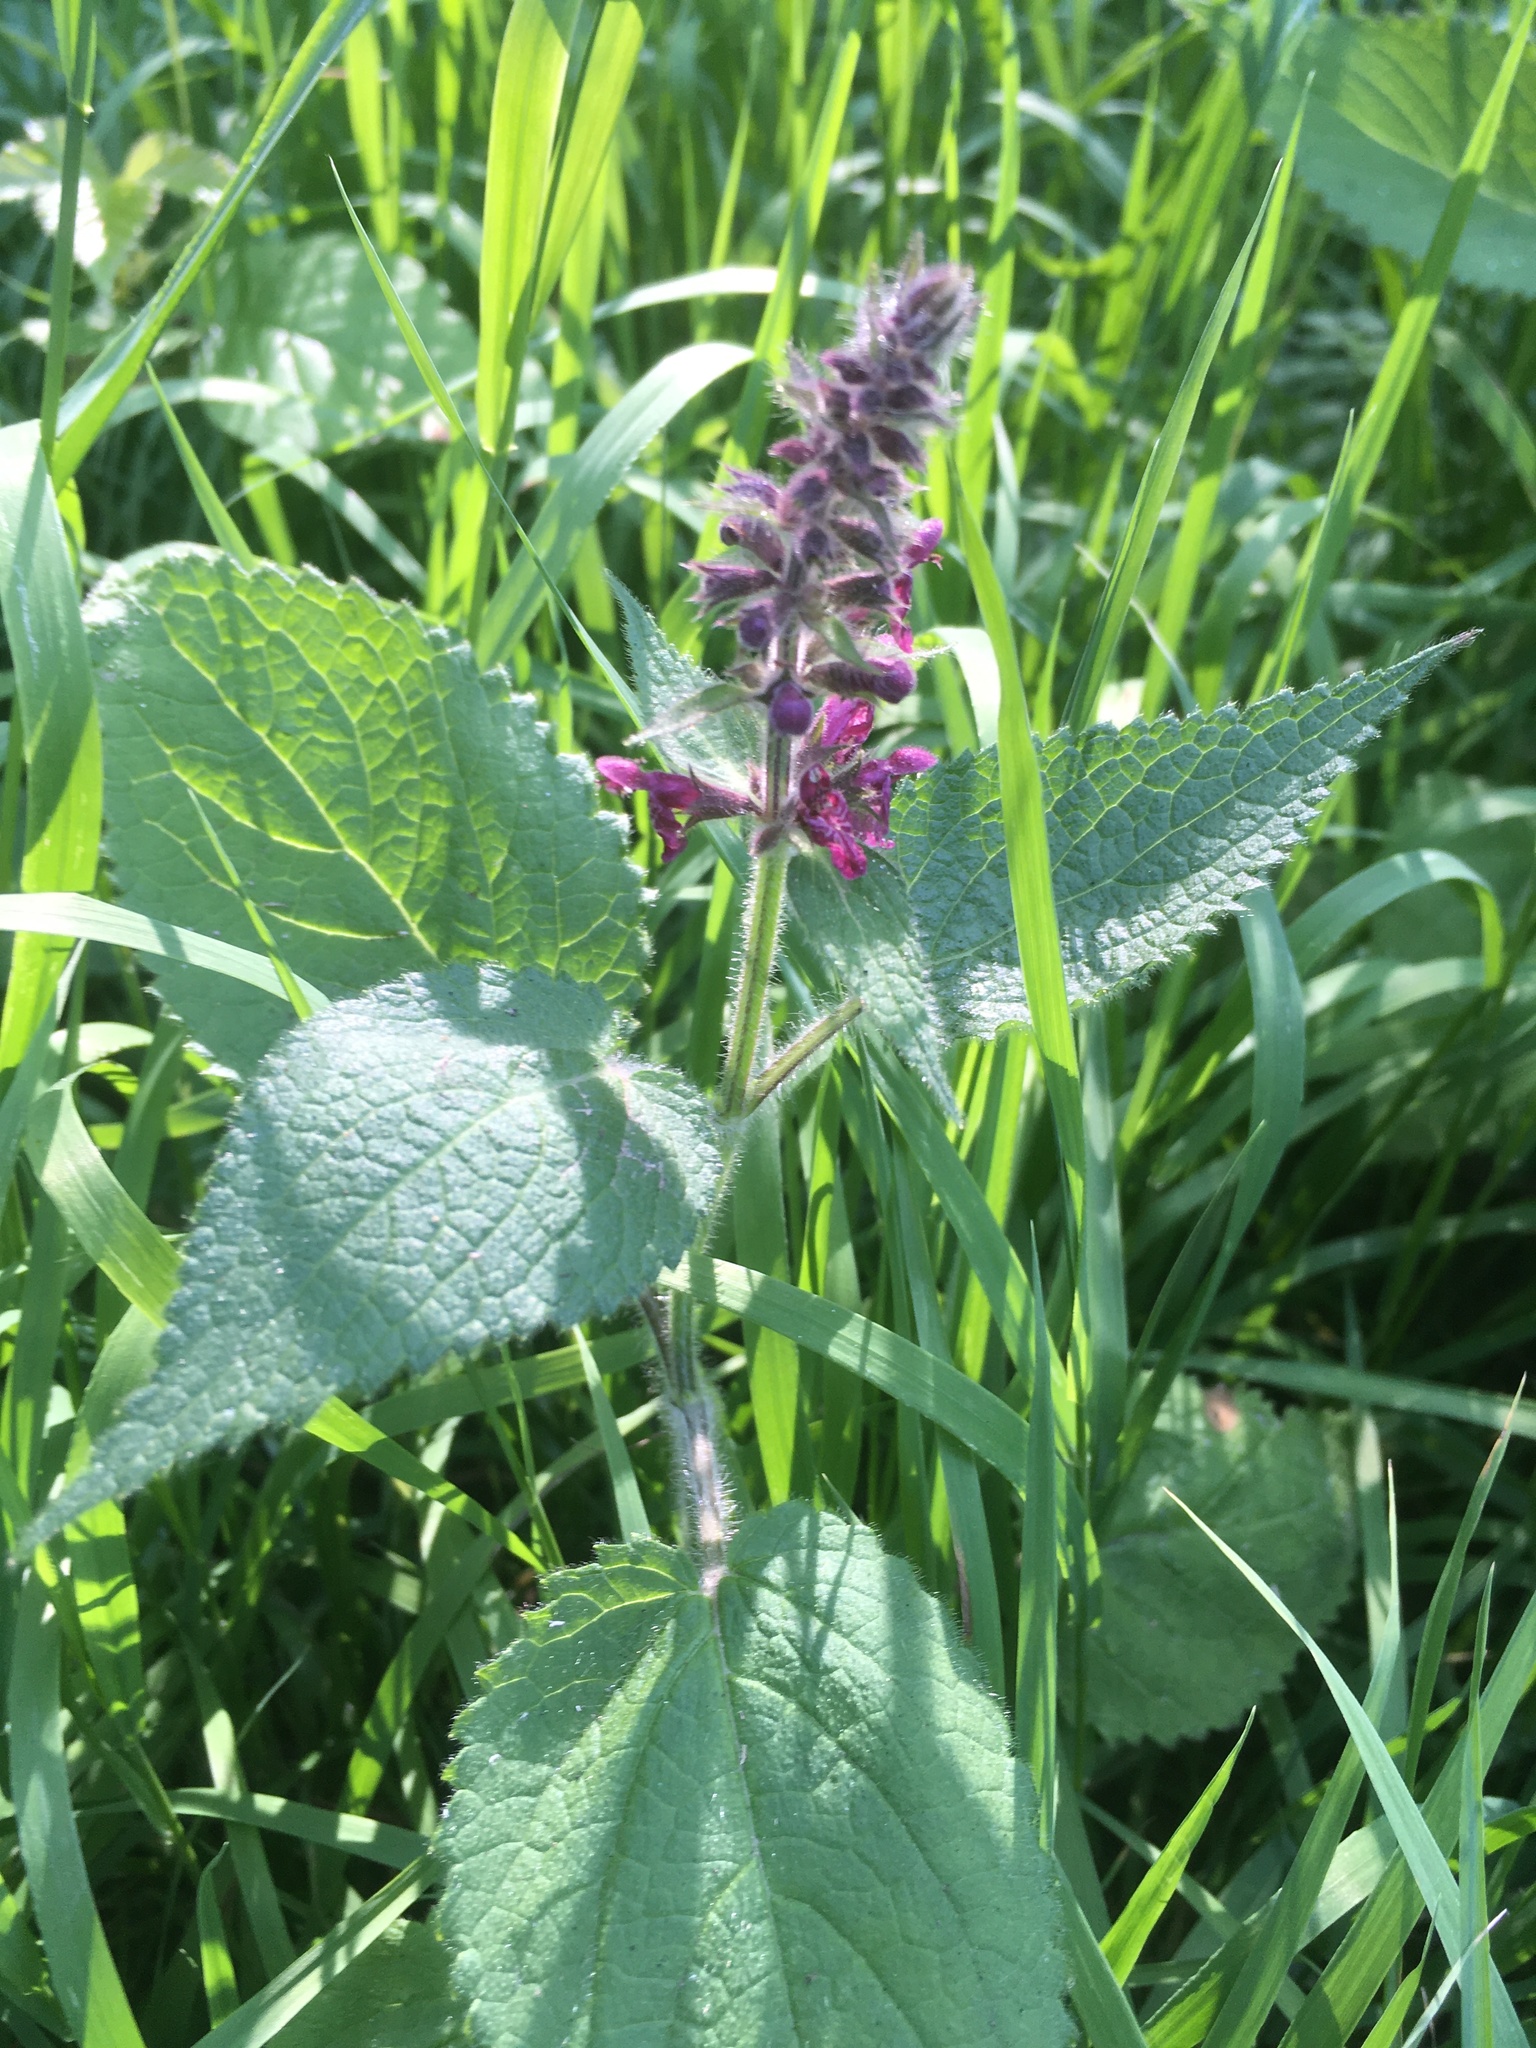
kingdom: Plantae
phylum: Tracheophyta
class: Magnoliopsida
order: Lamiales
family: Lamiaceae
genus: Stachys
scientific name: Stachys sylvatica
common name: Hedge woundwort
